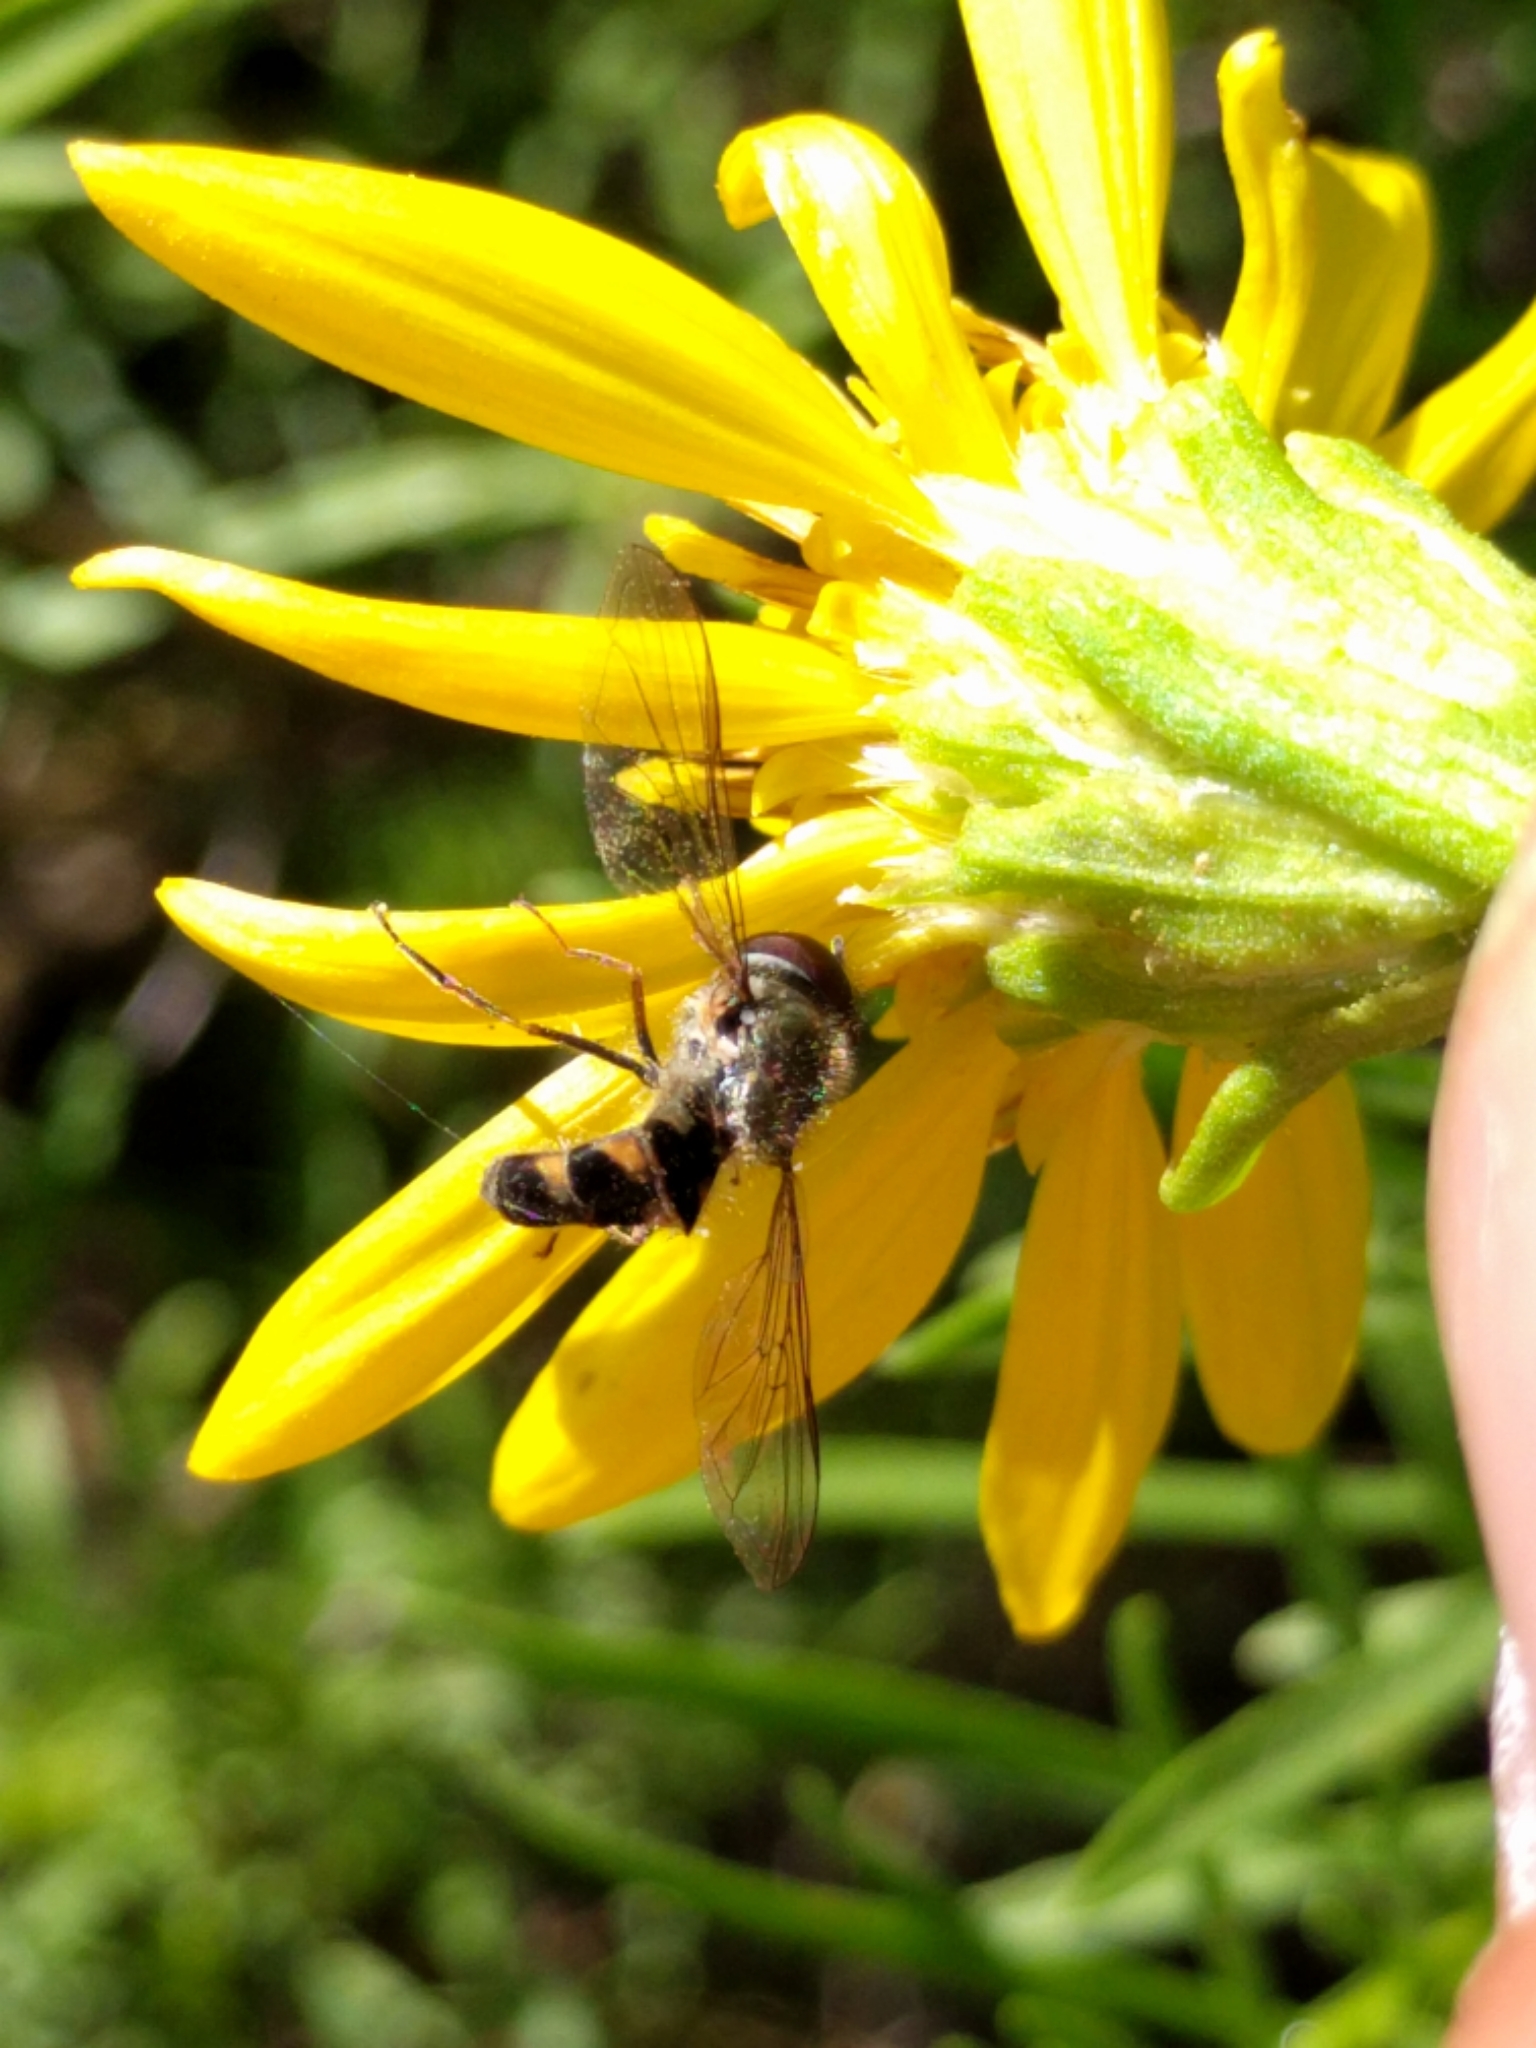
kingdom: Fungi
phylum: Entomophthoromycota
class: Entomophthoromycetes
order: Entomophthorales
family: Entomophthoraceae
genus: Entomophthora
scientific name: Entomophthora
